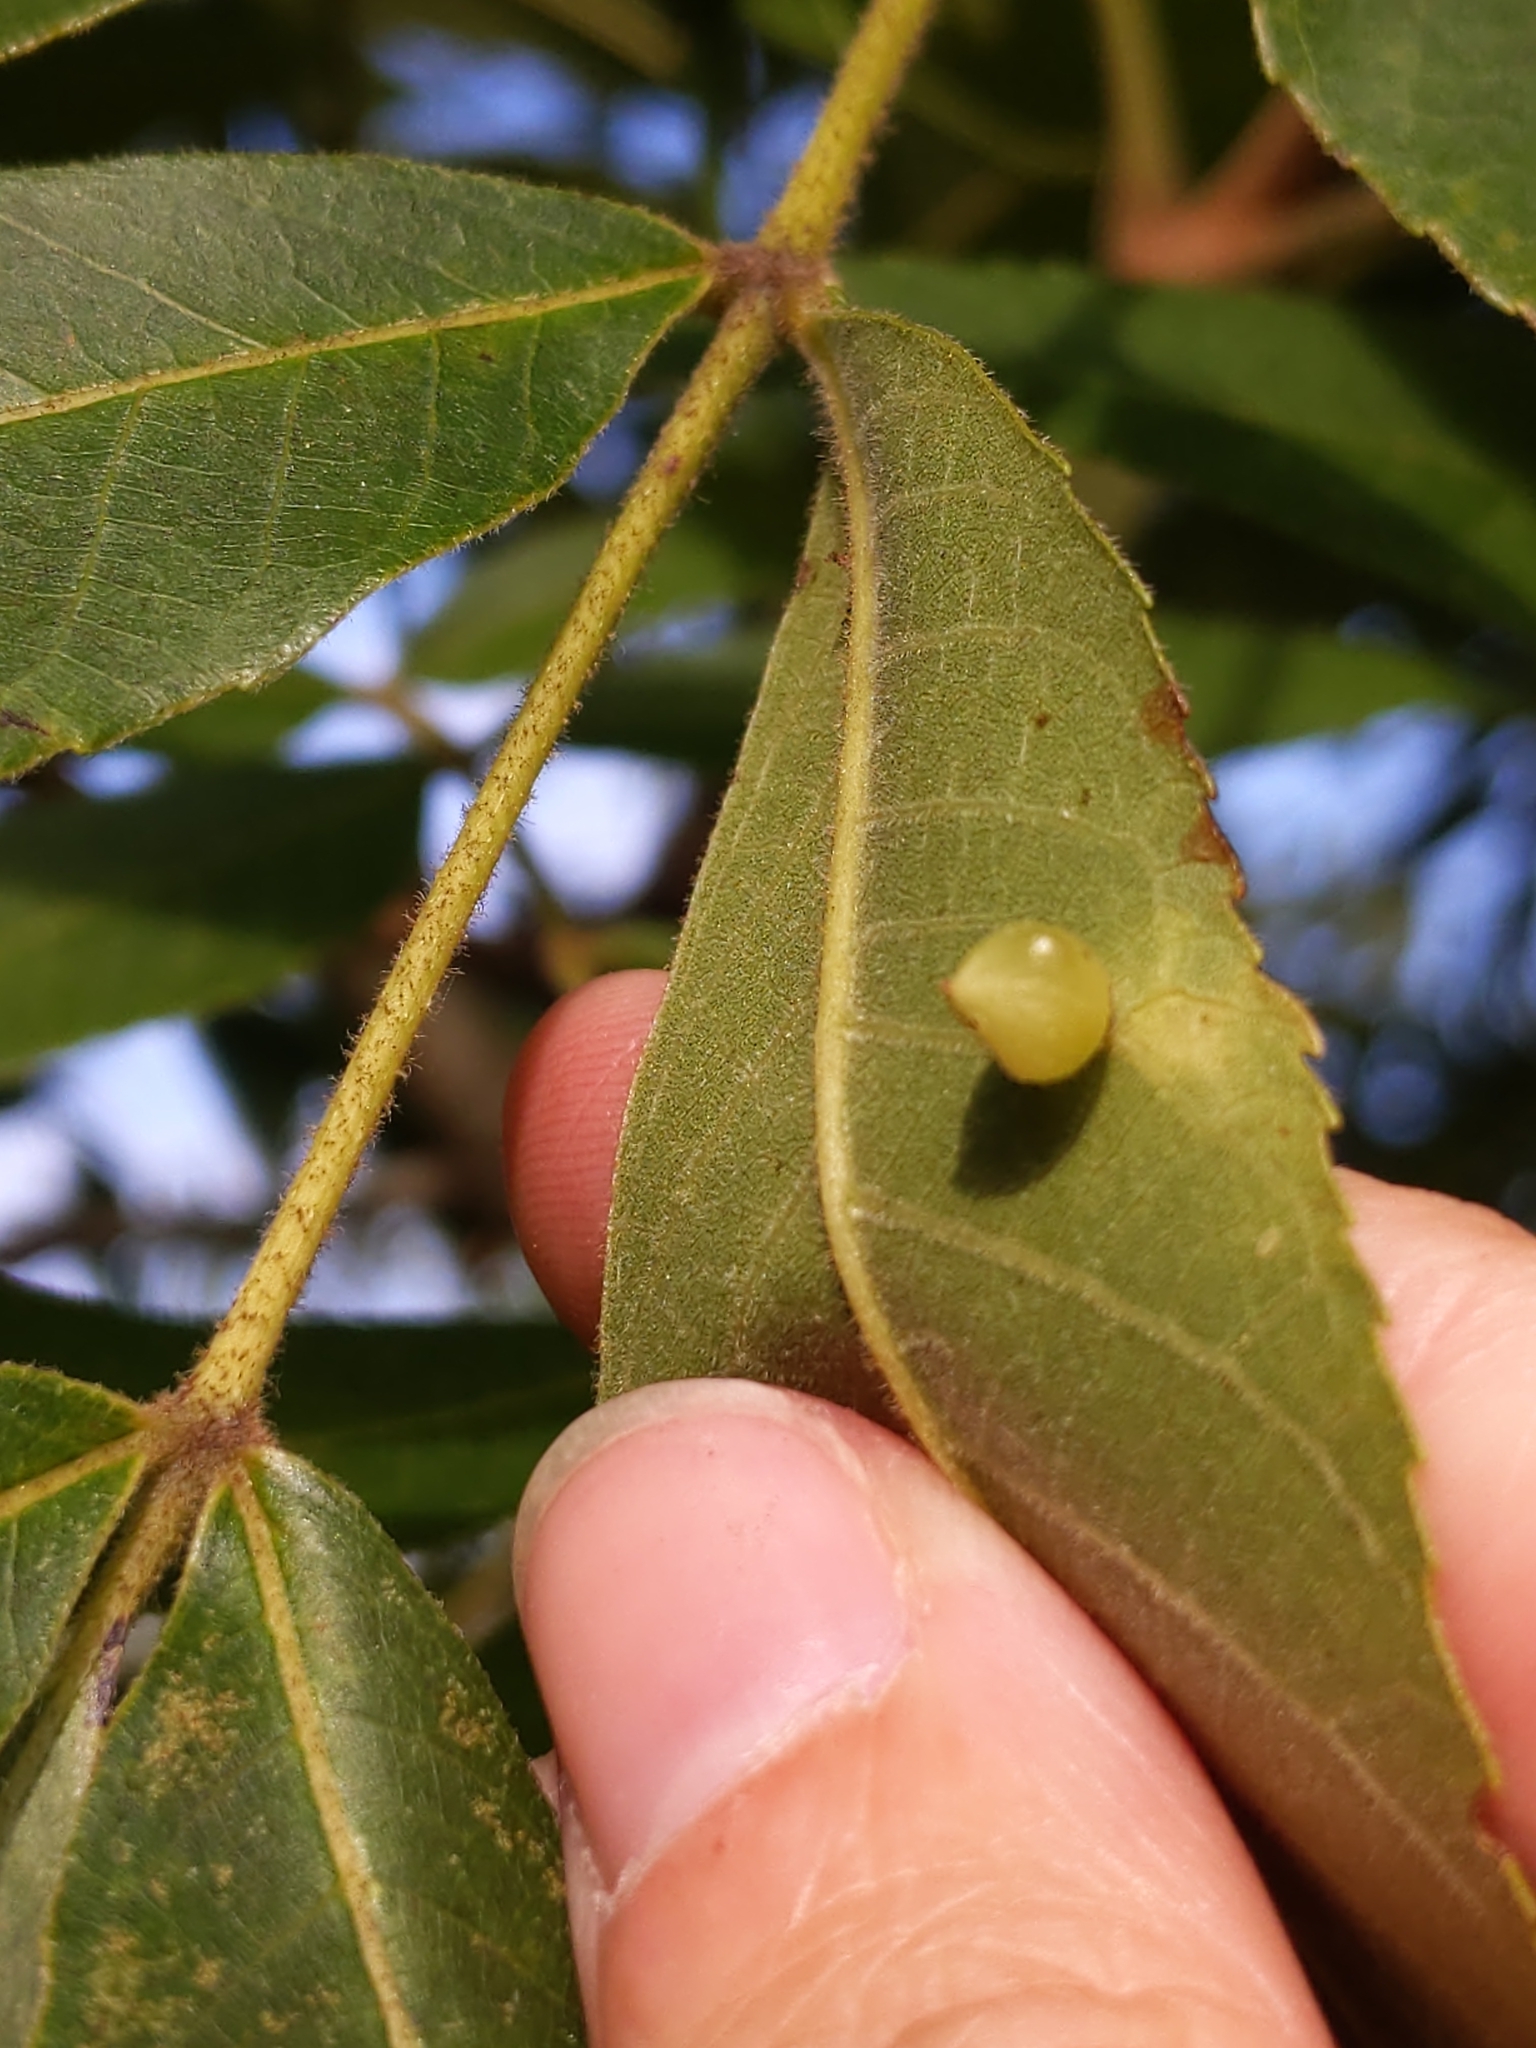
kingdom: Animalia
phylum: Arthropoda
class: Insecta
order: Diptera
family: Cecidomyiidae
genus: Caryomyia
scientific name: Caryomyia caryaecola
